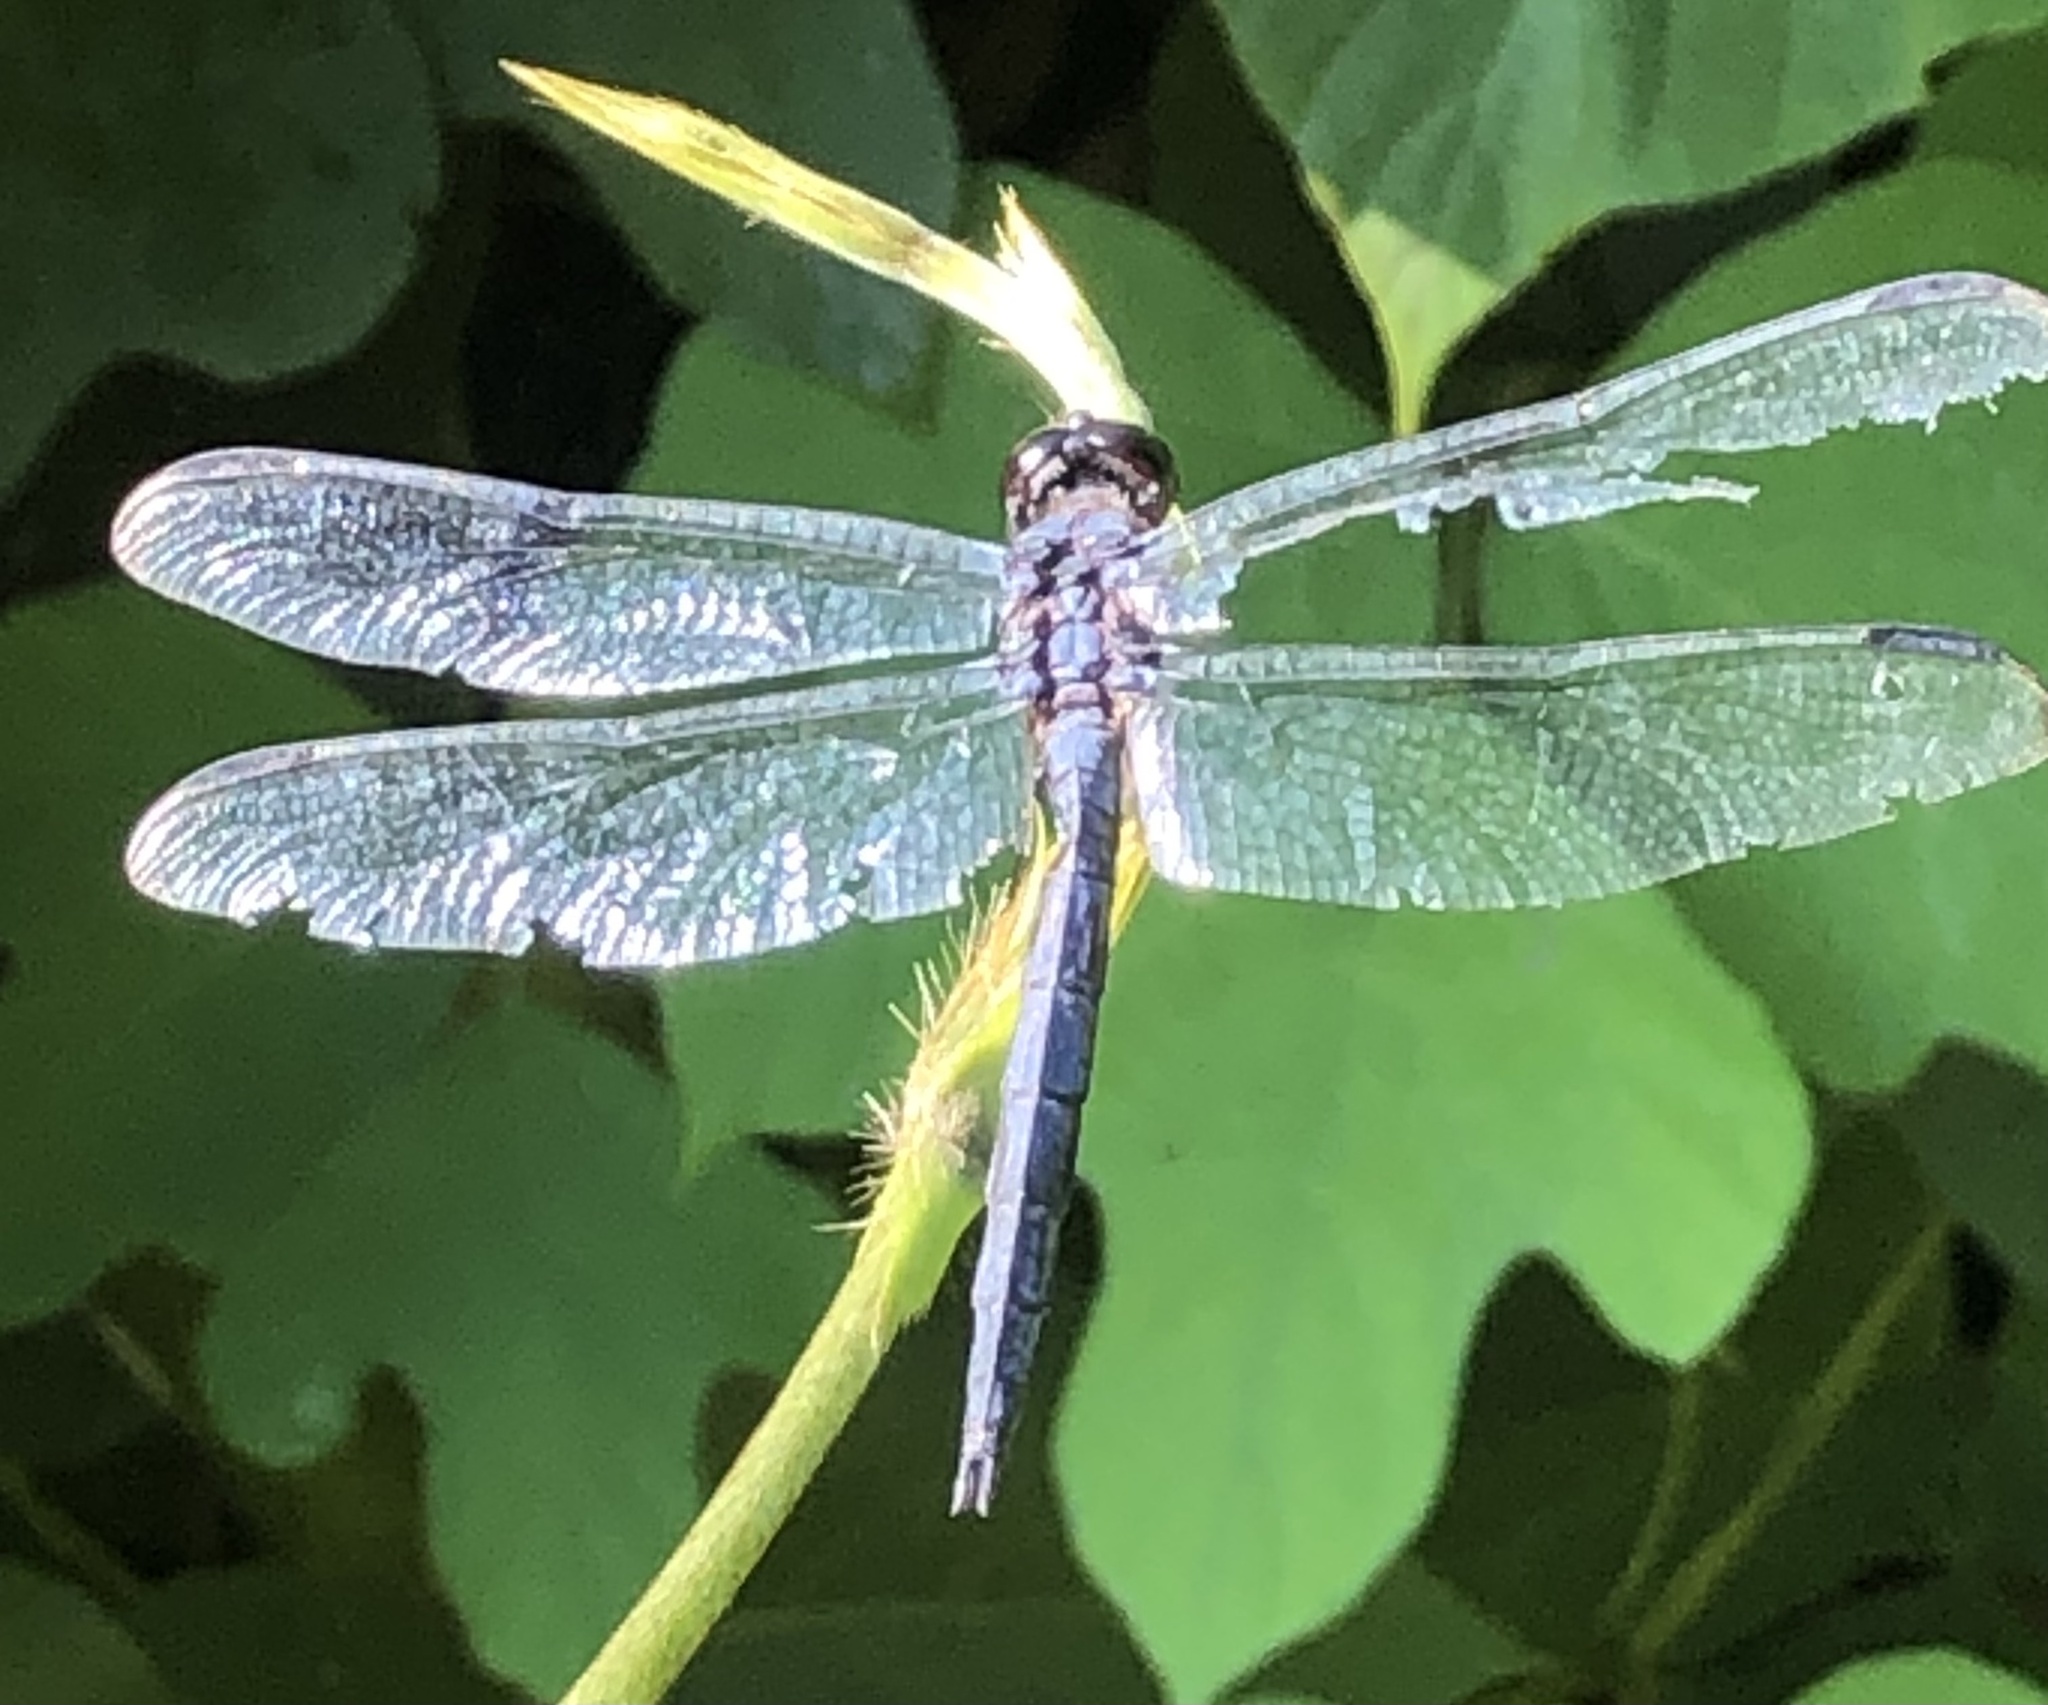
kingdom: Animalia
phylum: Arthropoda
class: Insecta
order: Odonata
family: Libellulidae
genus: Libellula
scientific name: Libellula incesta
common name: Slaty skimmer
